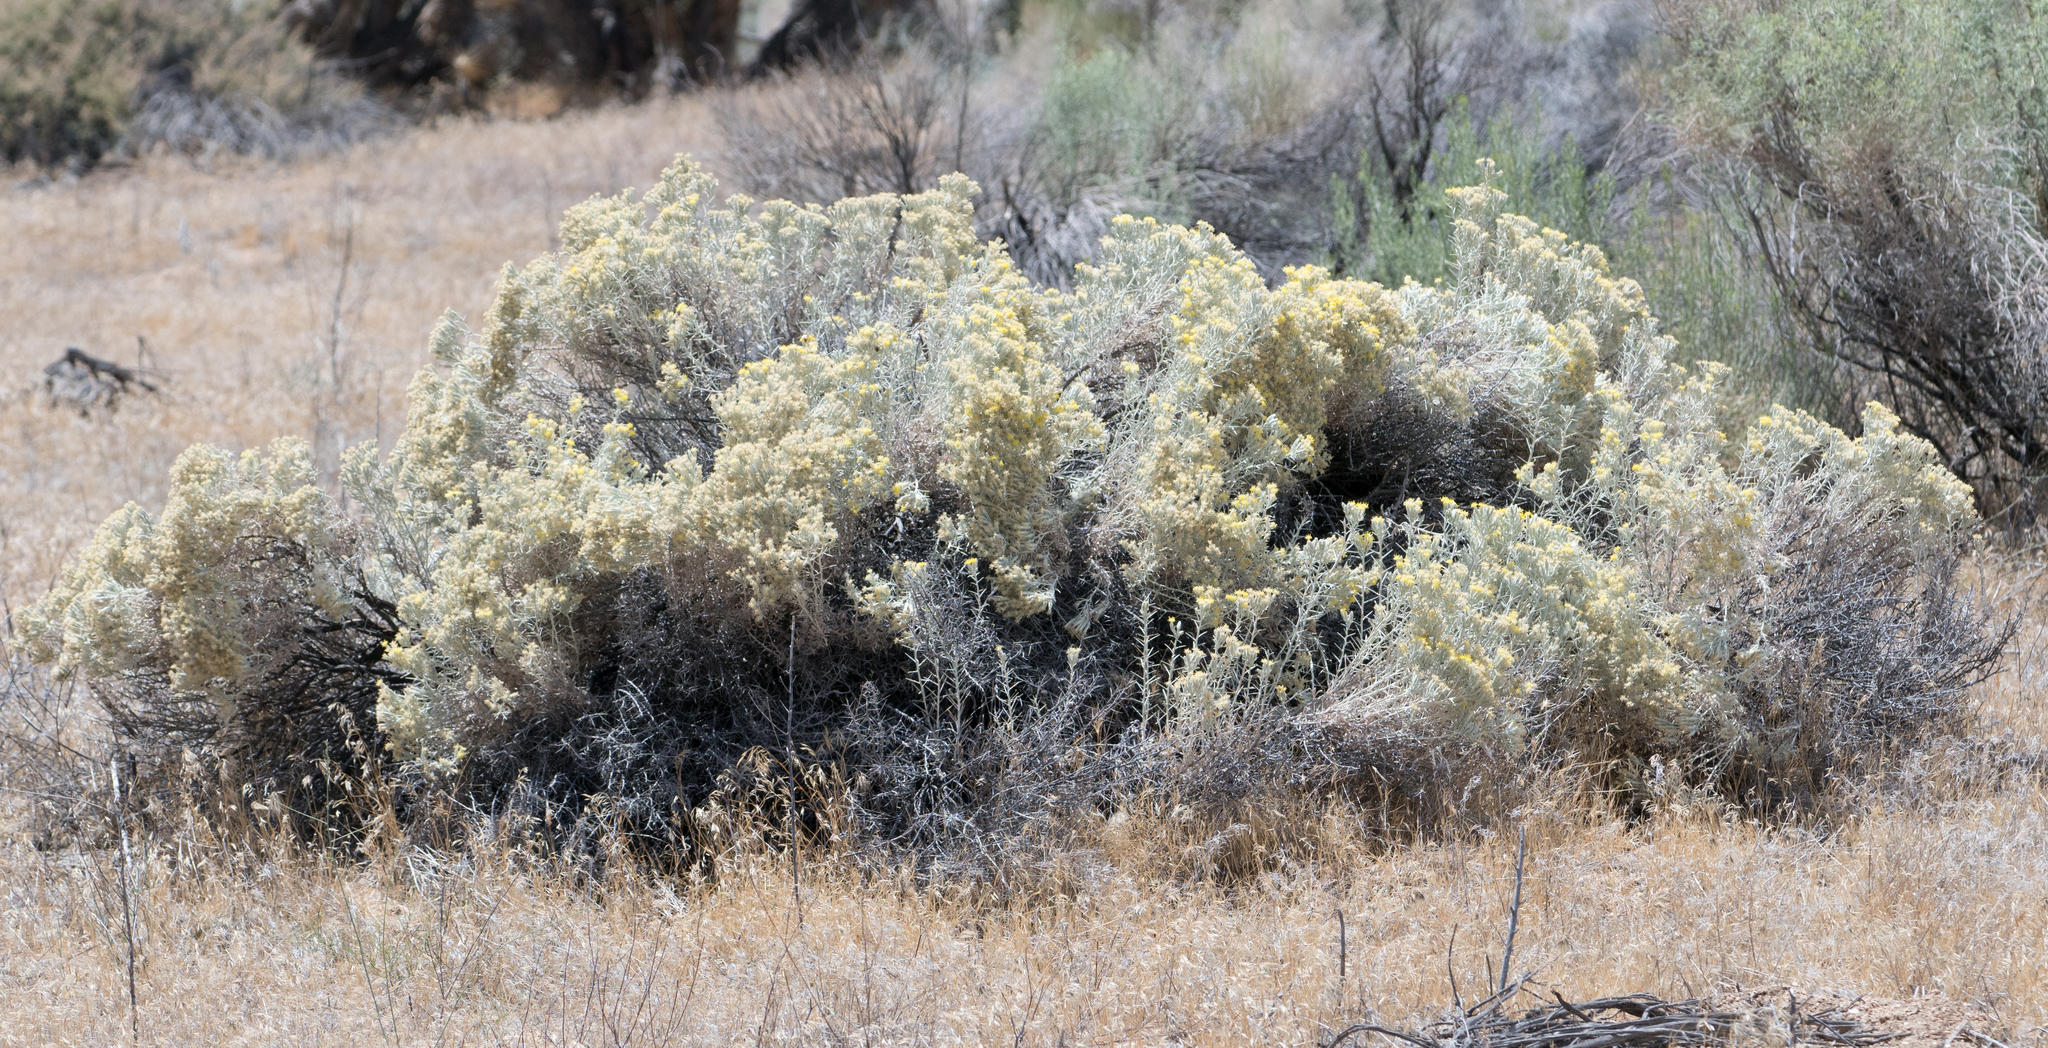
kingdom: Plantae
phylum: Tracheophyta
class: Magnoliopsida
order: Asterales
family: Asteraceae
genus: Tetradymia
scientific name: Tetradymia stenolepis
